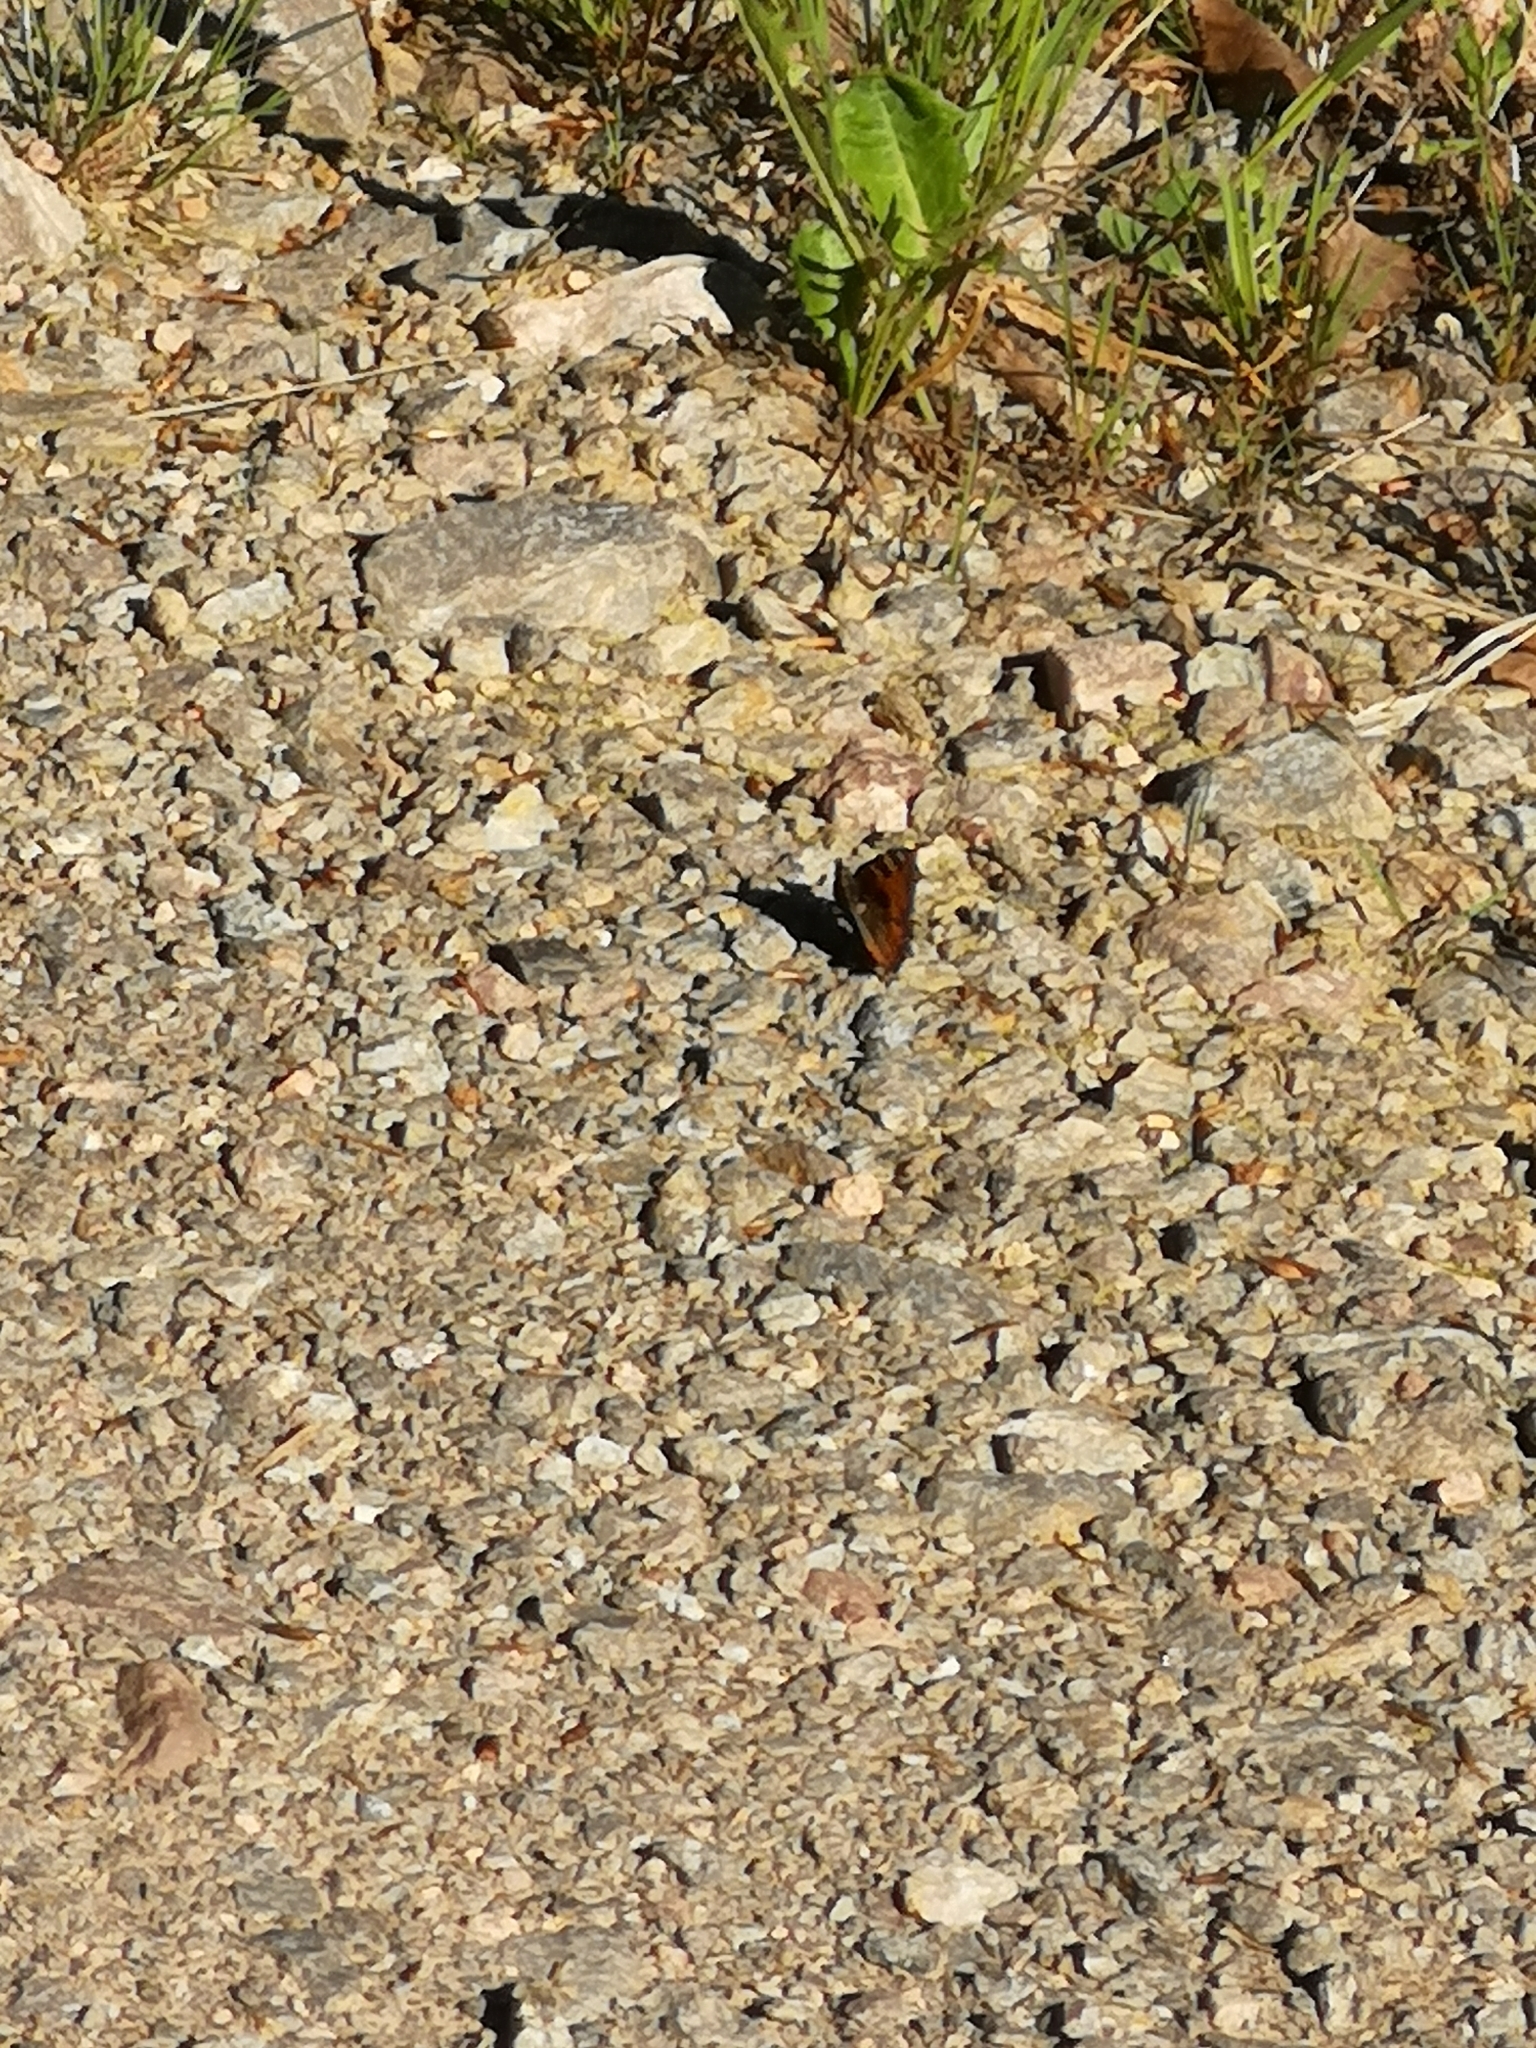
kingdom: Animalia
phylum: Arthropoda
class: Insecta
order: Lepidoptera
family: Nymphalidae
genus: Aglais
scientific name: Aglais urticae
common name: Small tortoiseshell
